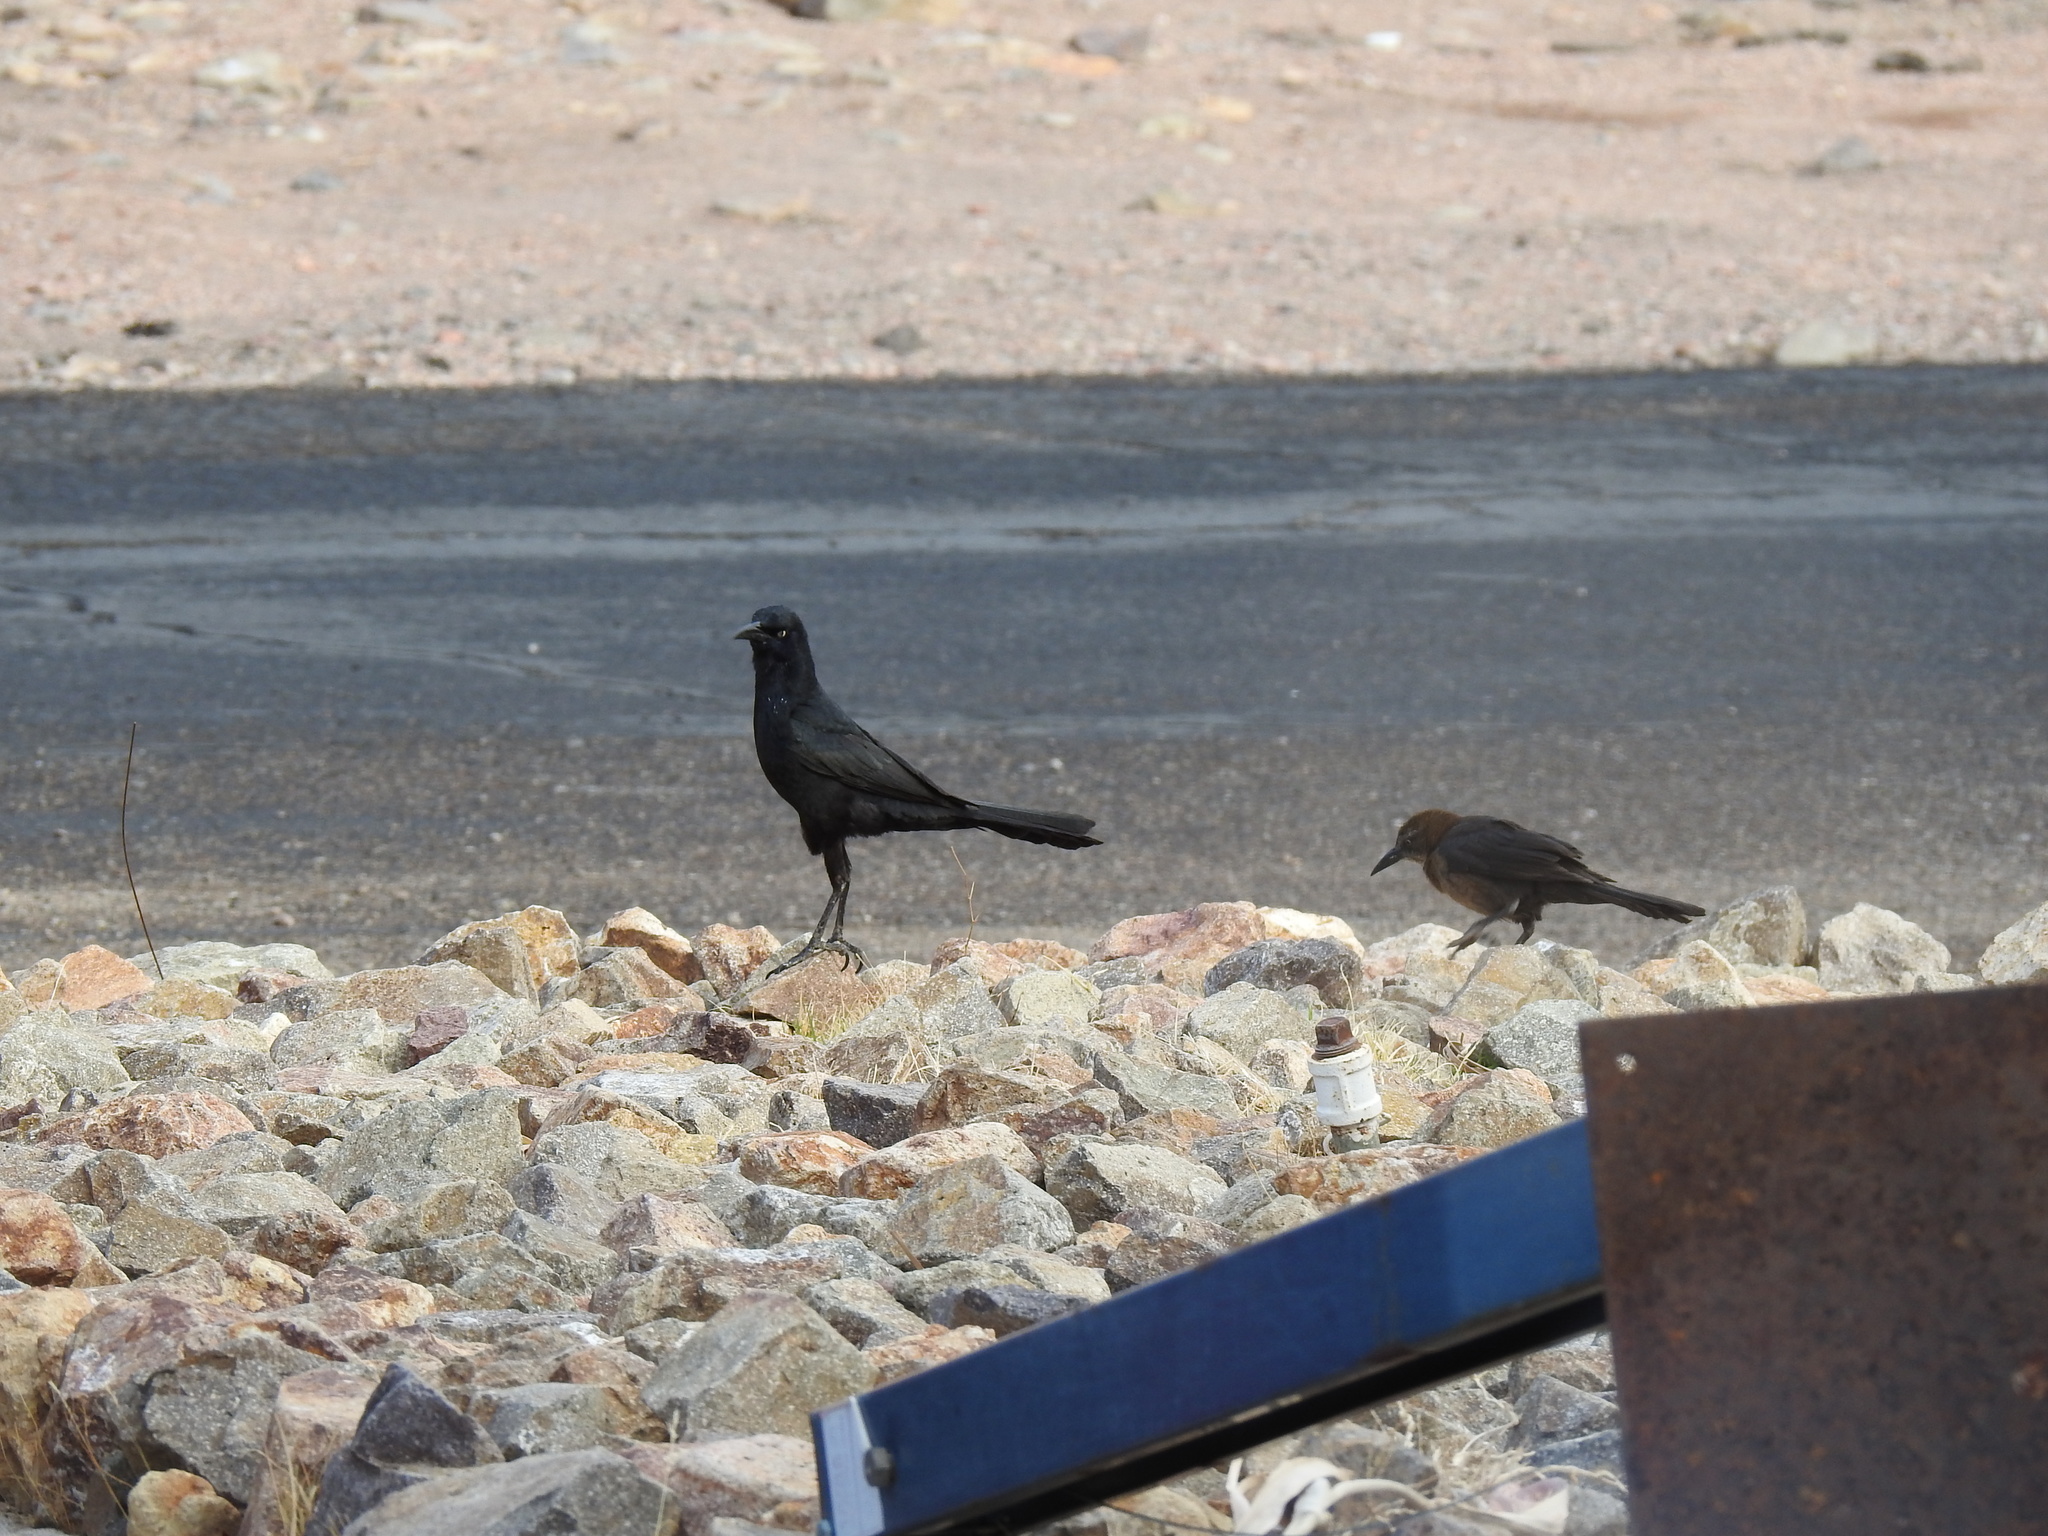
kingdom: Animalia
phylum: Chordata
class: Aves
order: Passeriformes
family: Icteridae
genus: Quiscalus
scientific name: Quiscalus mexicanus
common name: Great-tailed grackle
